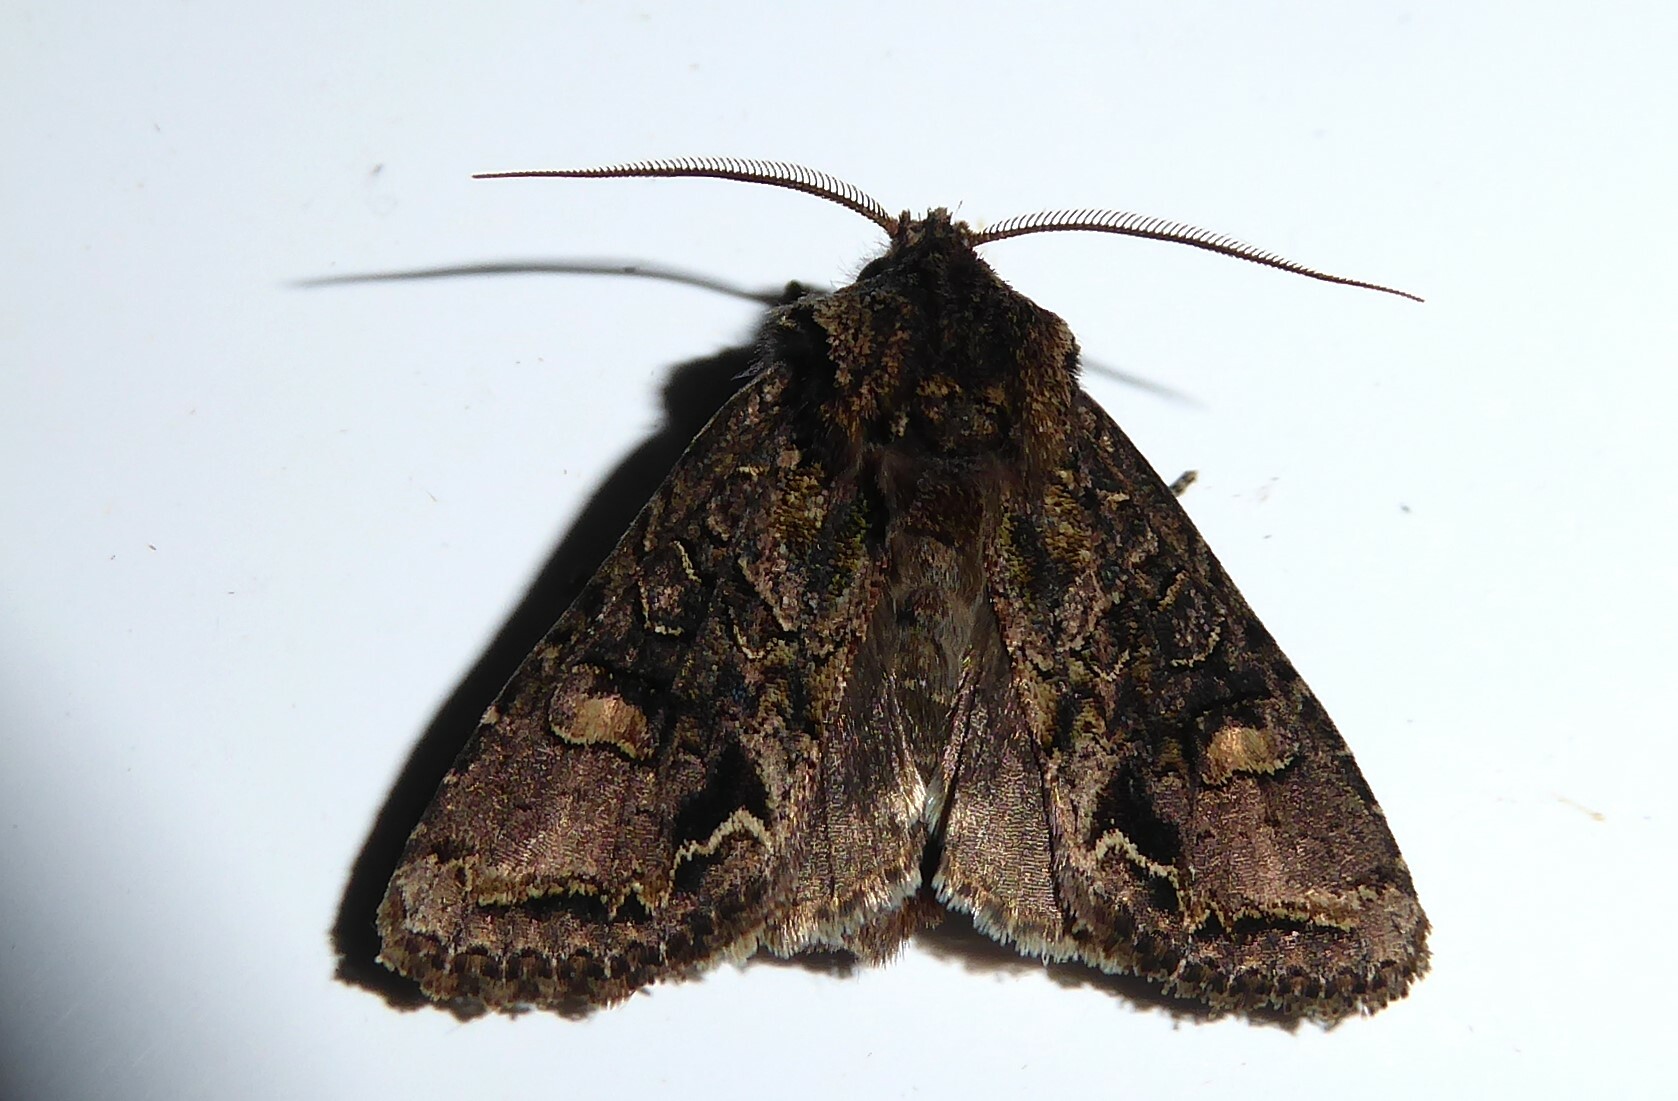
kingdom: Animalia
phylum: Arthropoda
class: Insecta
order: Lepidoptera
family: Noctuidae
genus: Ichneutica
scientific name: Ichneutica insignis
